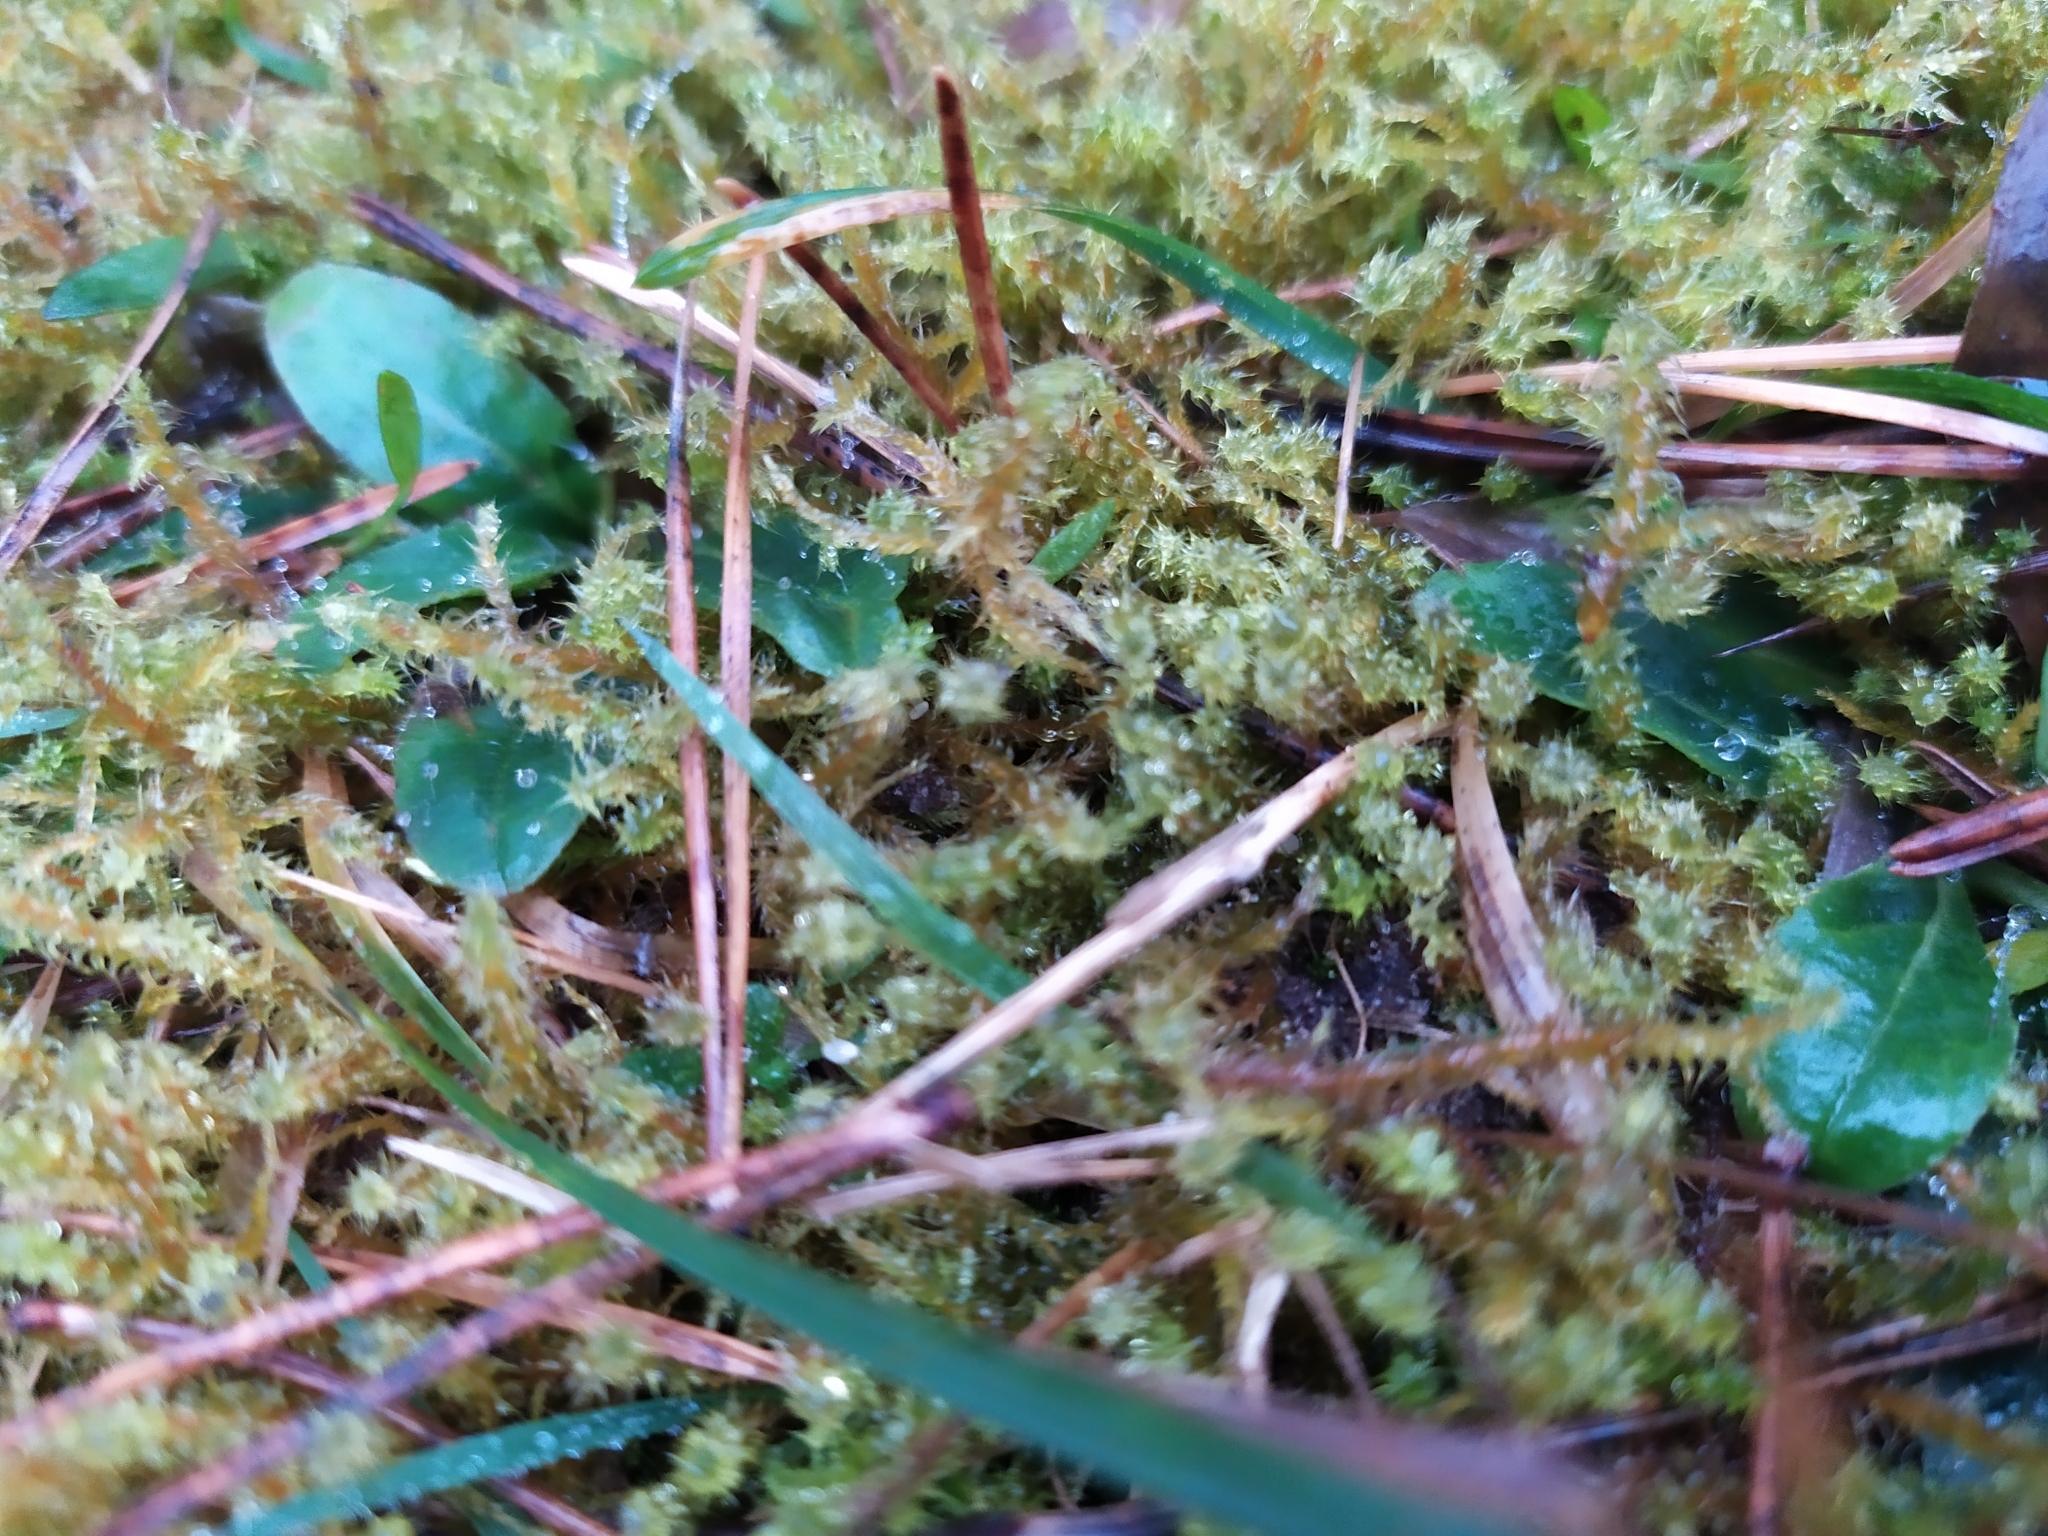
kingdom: Plantae
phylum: Bryophyta
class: Bryopsida
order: Hypnales
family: Hylocomiaceae
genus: Rhytidiadelphus
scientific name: Rhytidiadelphus squarrosus
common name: Springy turf-moss
